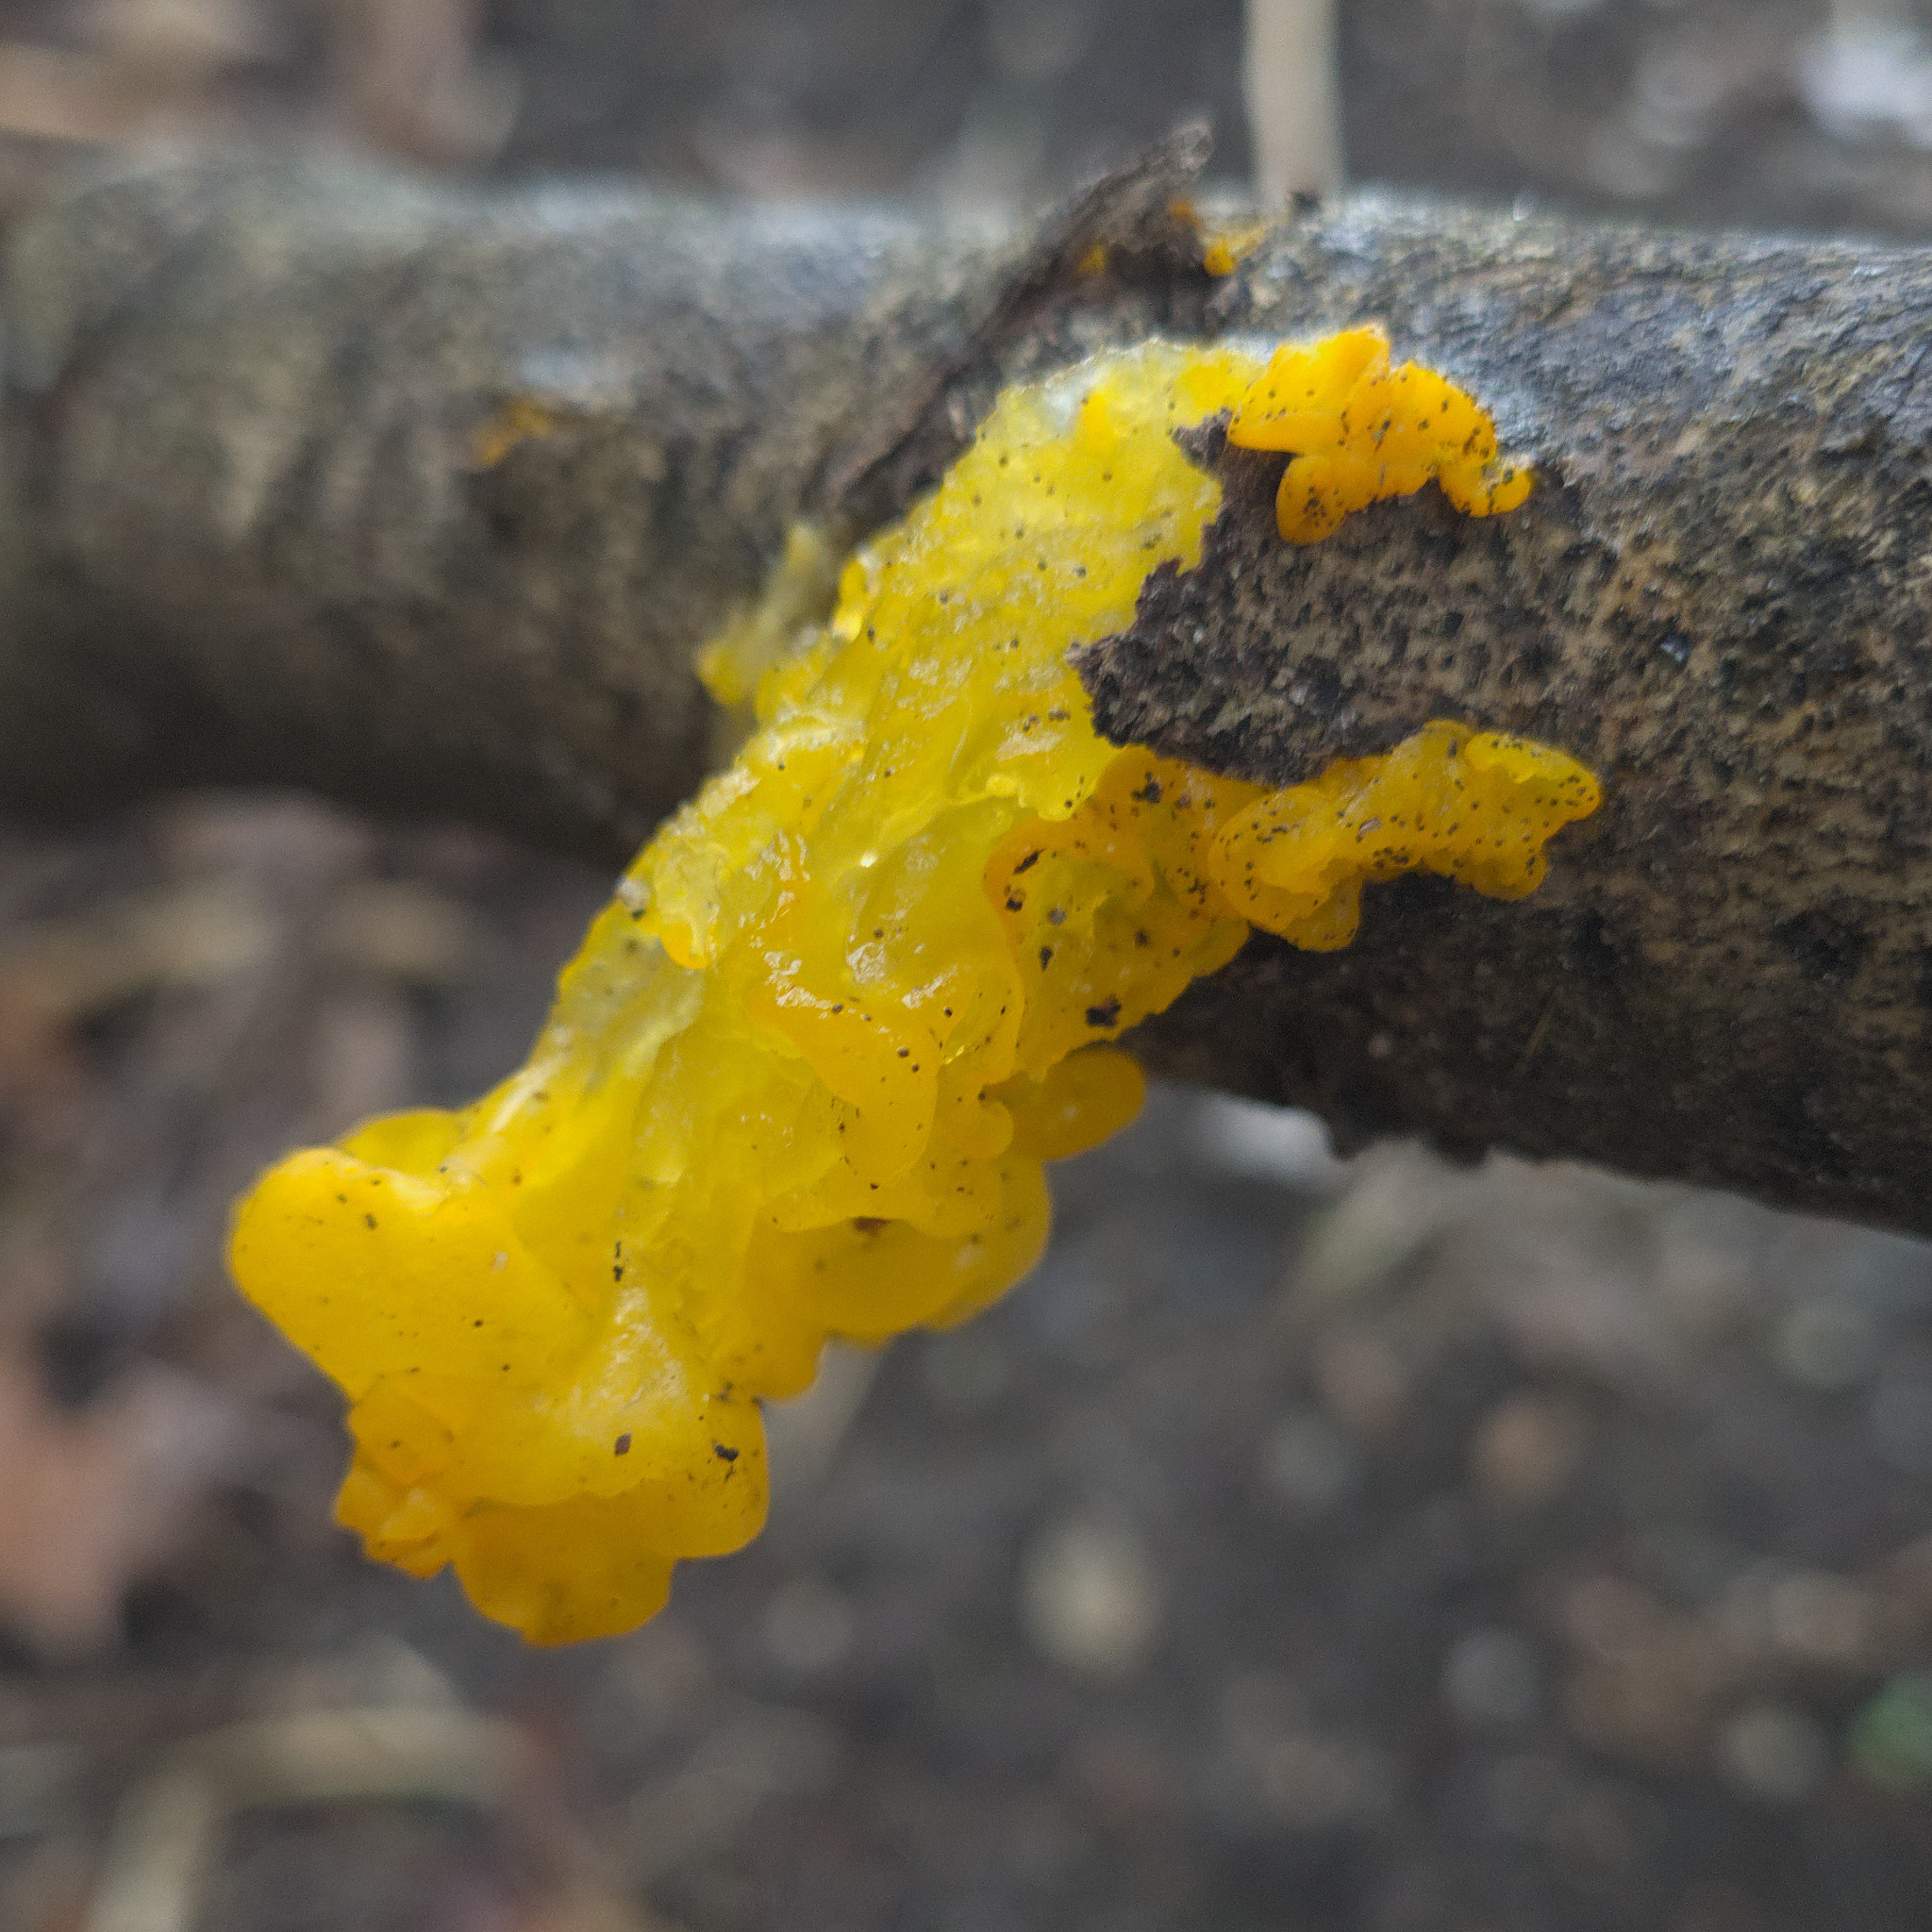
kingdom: Fungi
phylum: Basidiomycota
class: Tremellomycetes
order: Tremellales
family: Tremellaceae
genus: Tremella
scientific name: Tremella mesenterica
